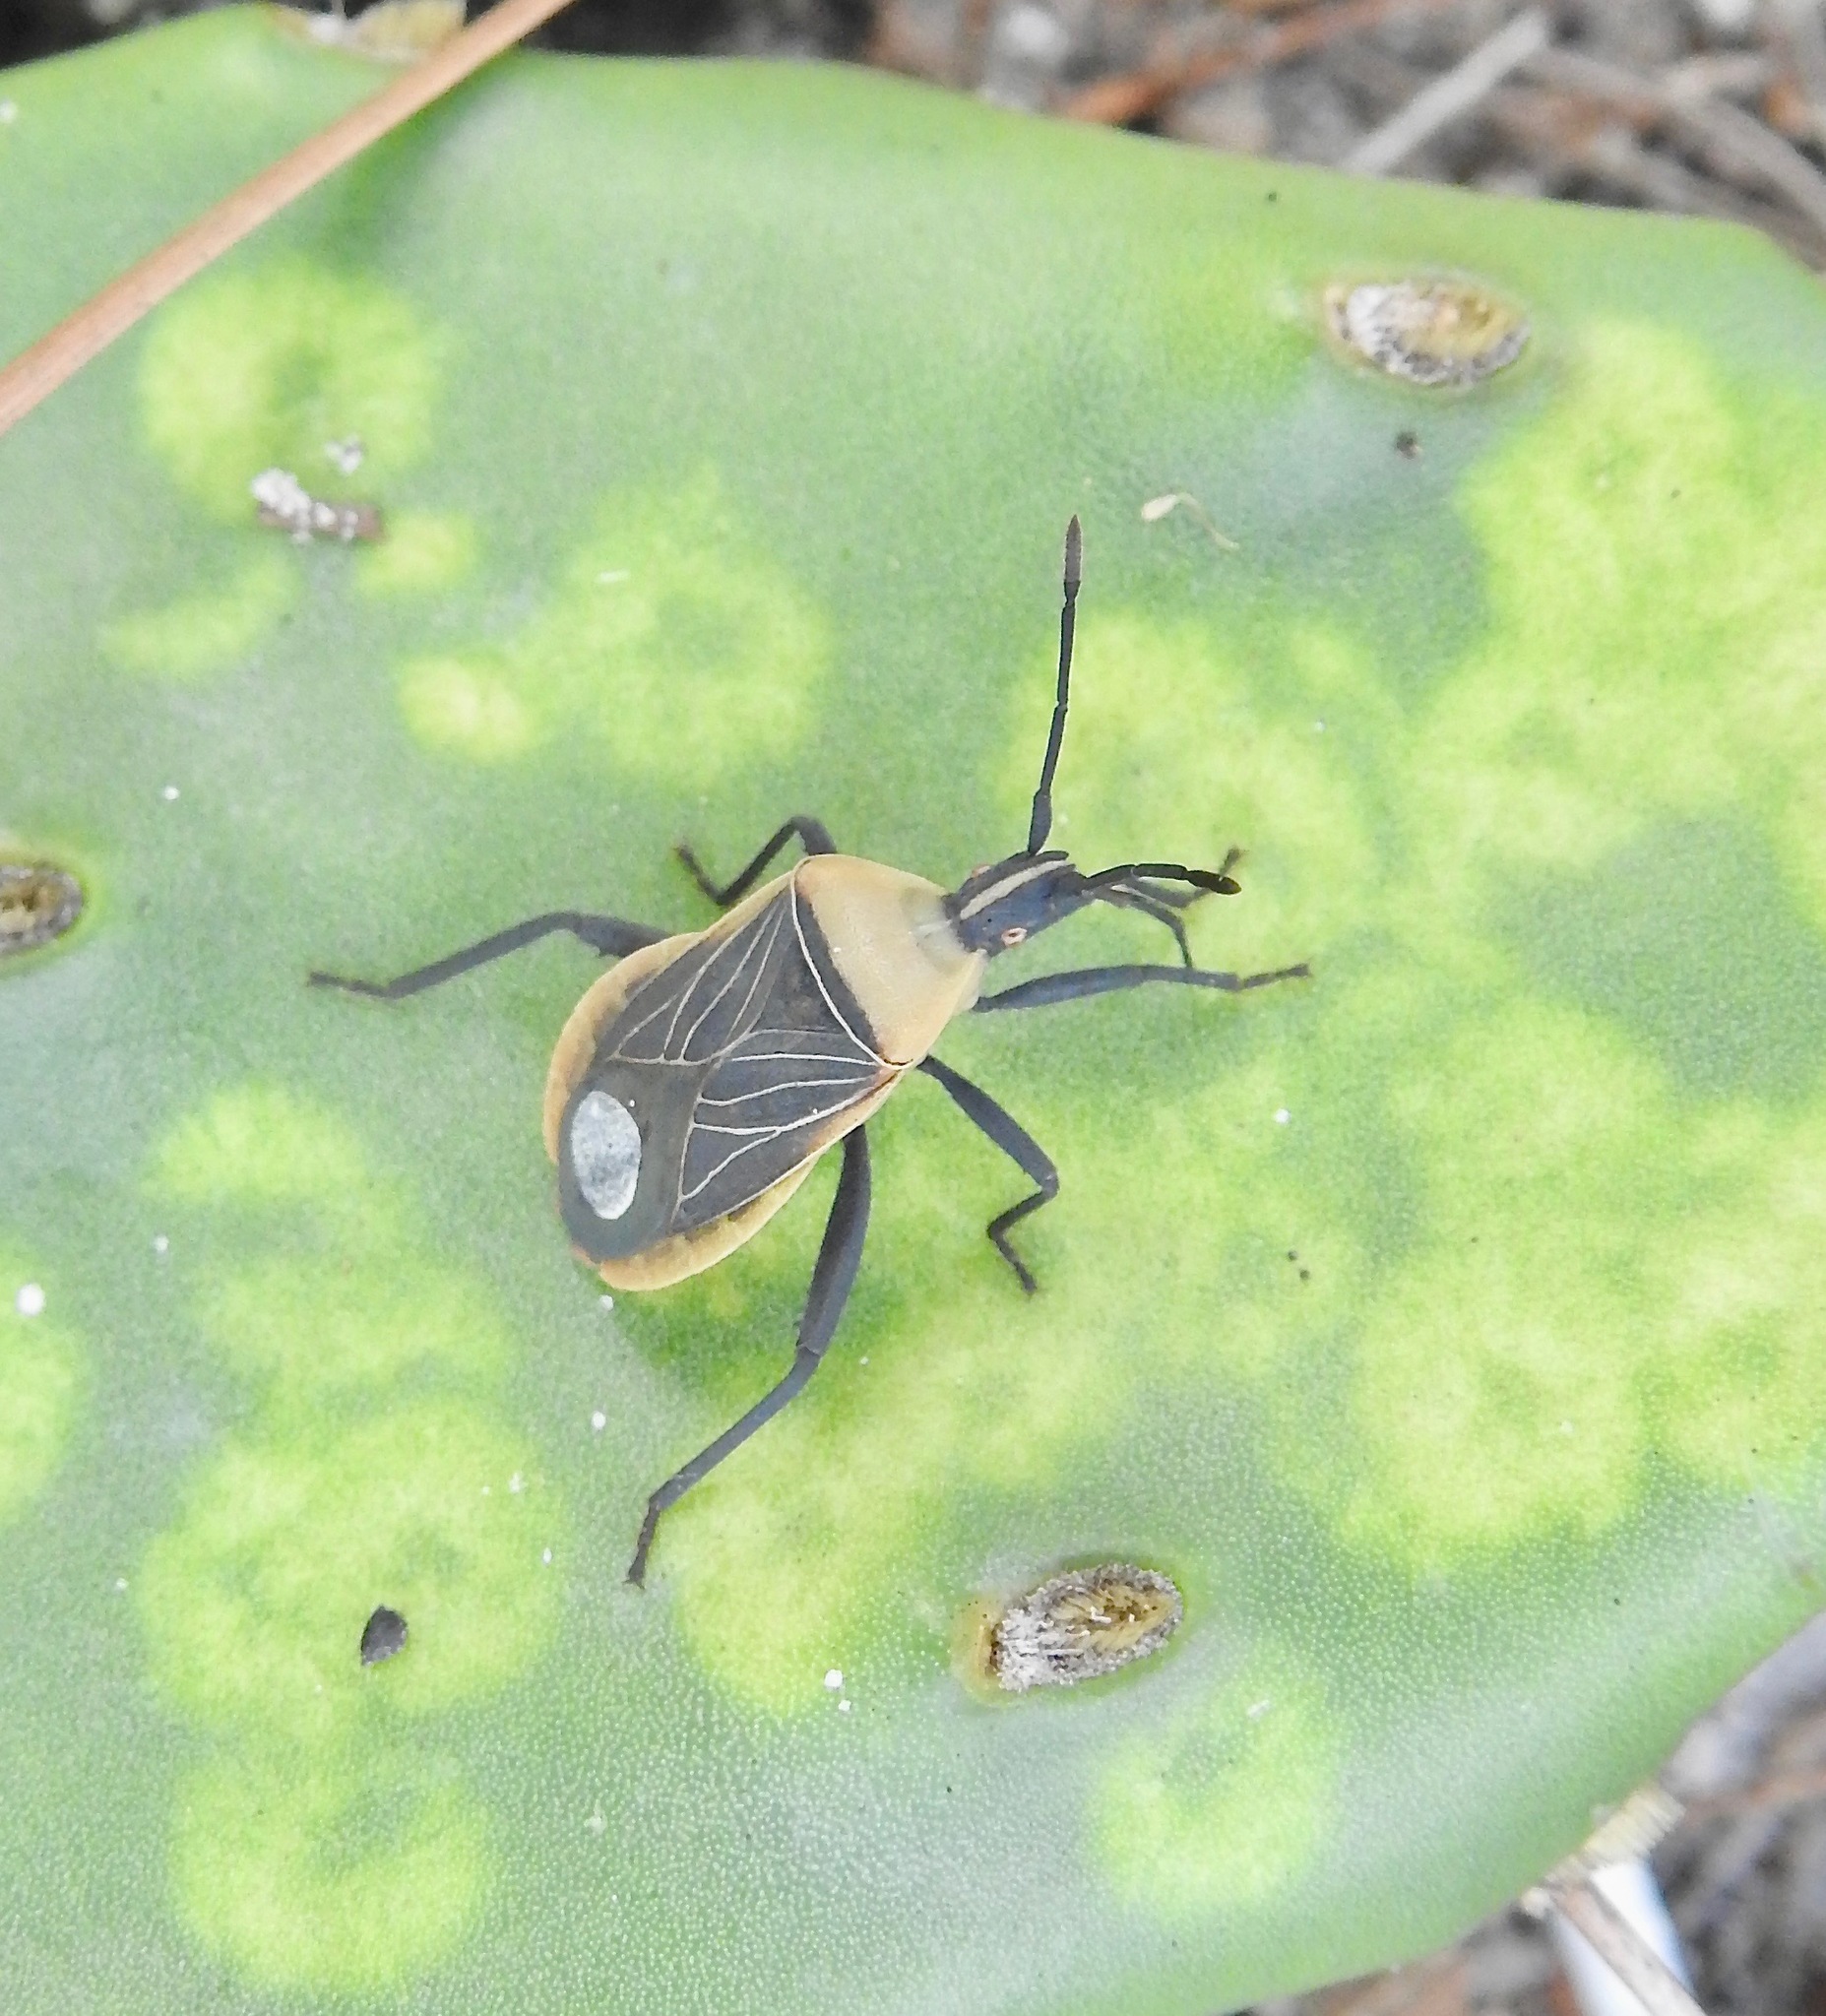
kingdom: Animalia
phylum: Arthropoda
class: Insecta
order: Hemiptera
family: Coreidae
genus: Chelinidea
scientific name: Chelinidea vittiger
